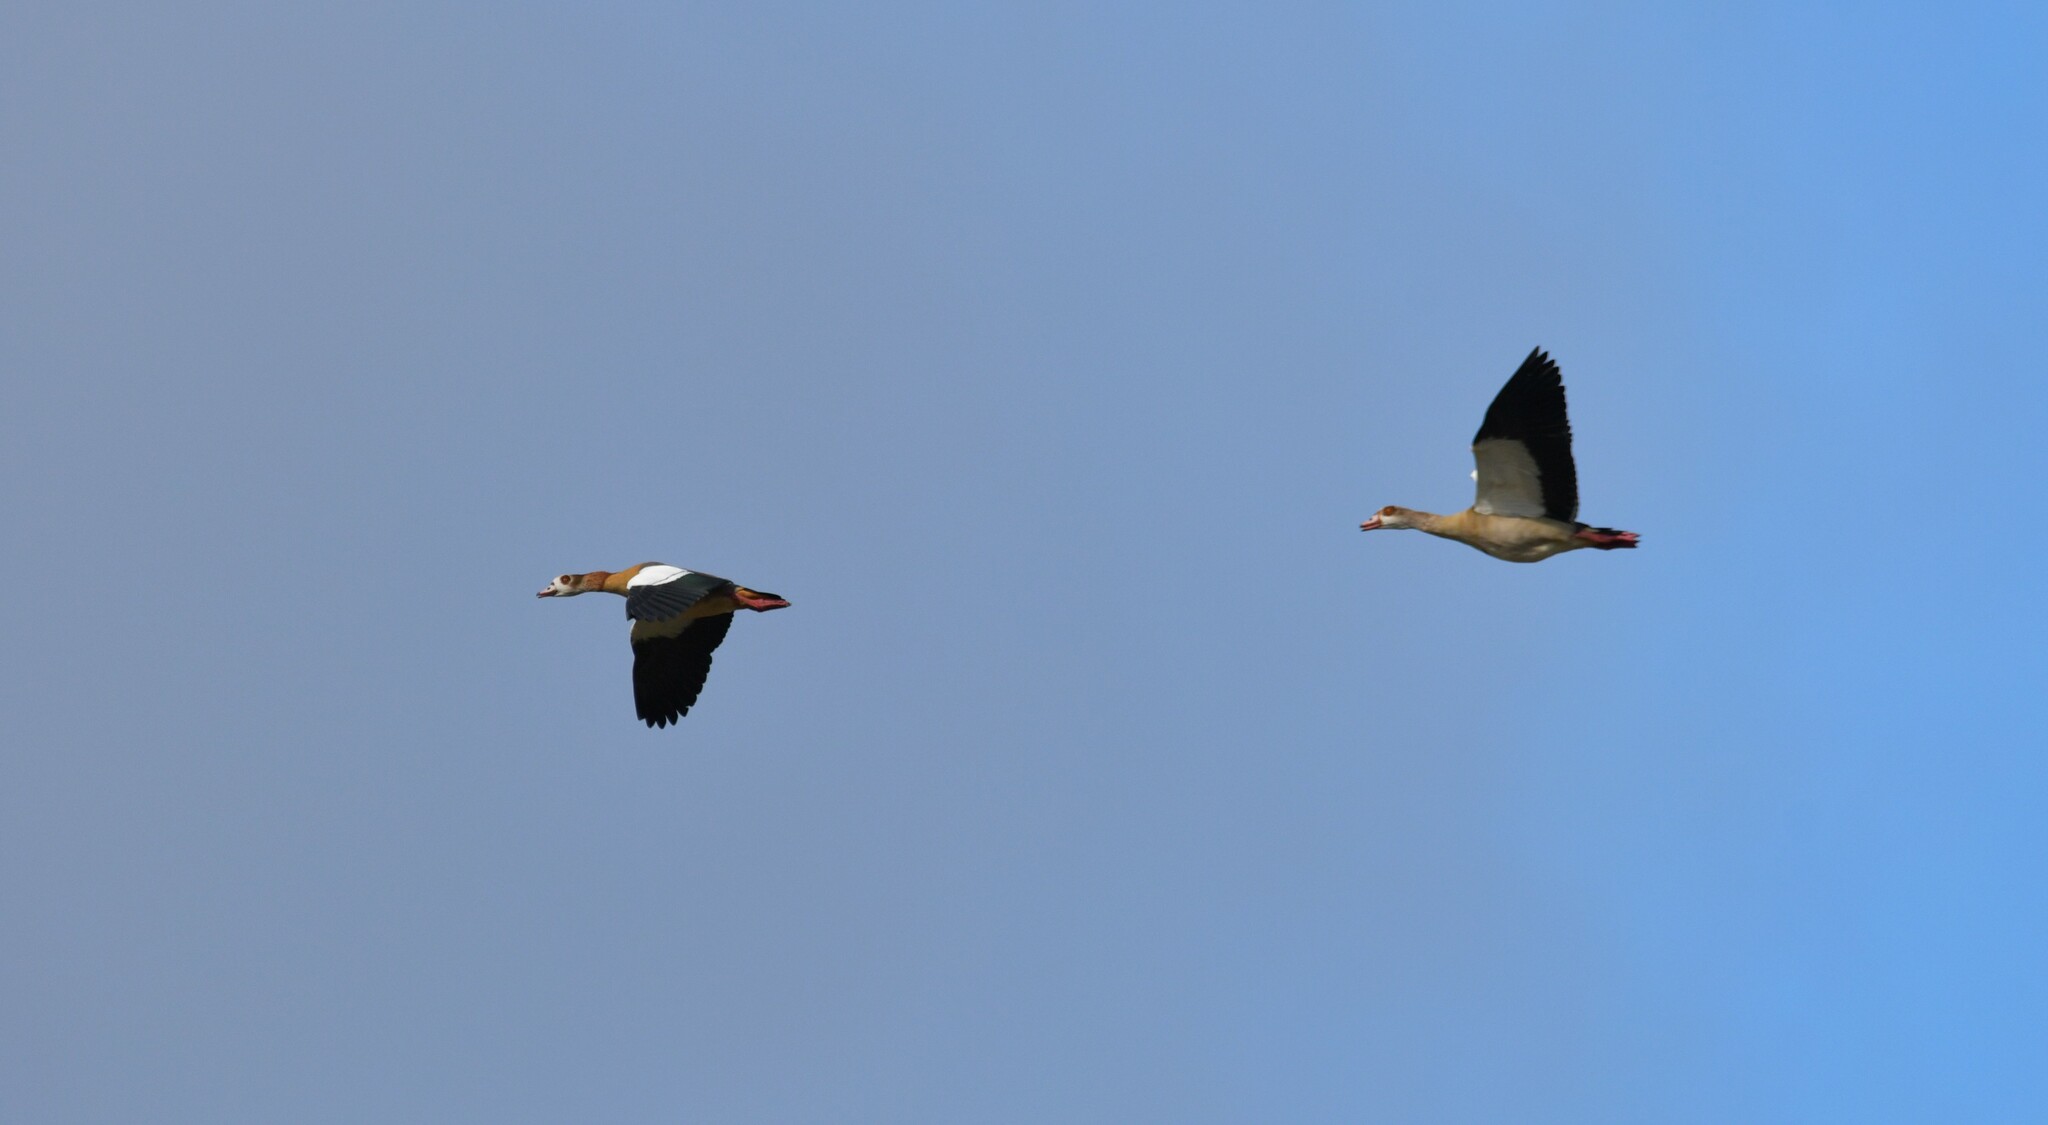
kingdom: Animalia
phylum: Chordata
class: Aves
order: Anseriformes
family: Anatidae
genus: Alopochen
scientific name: Alopochen aegyptiaca
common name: Egyptian goose
